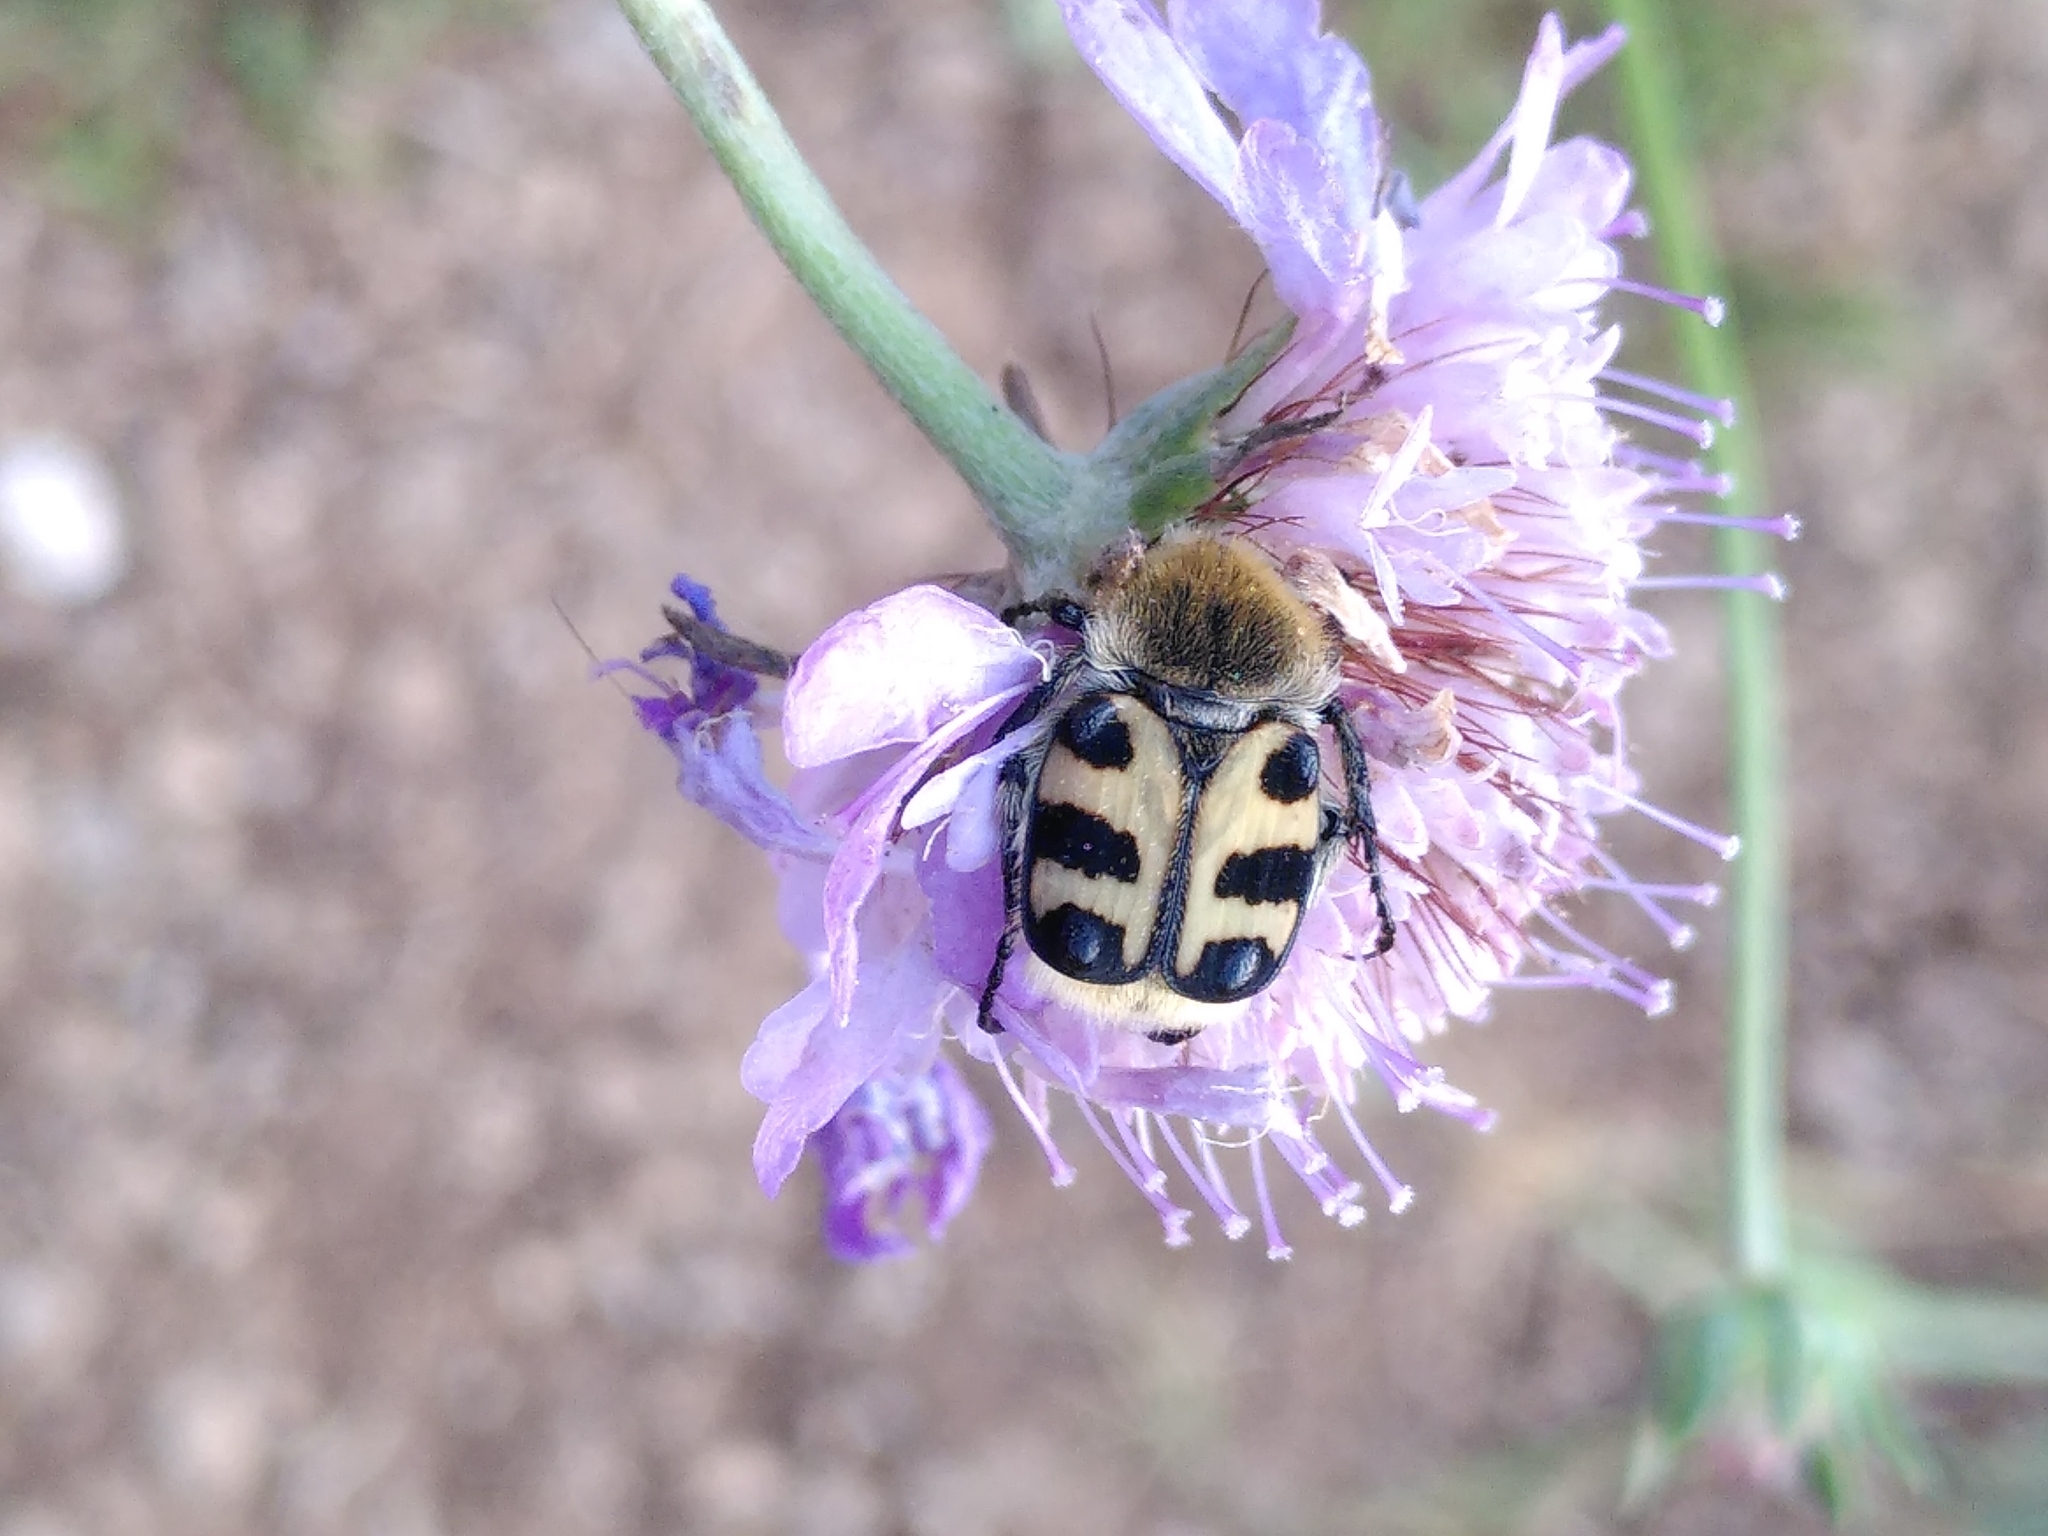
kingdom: Animalia
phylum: Arthropoda
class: Insecta
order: Coleoptera
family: Scarabaeidae
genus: Trichius
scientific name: Trichius gallicus
